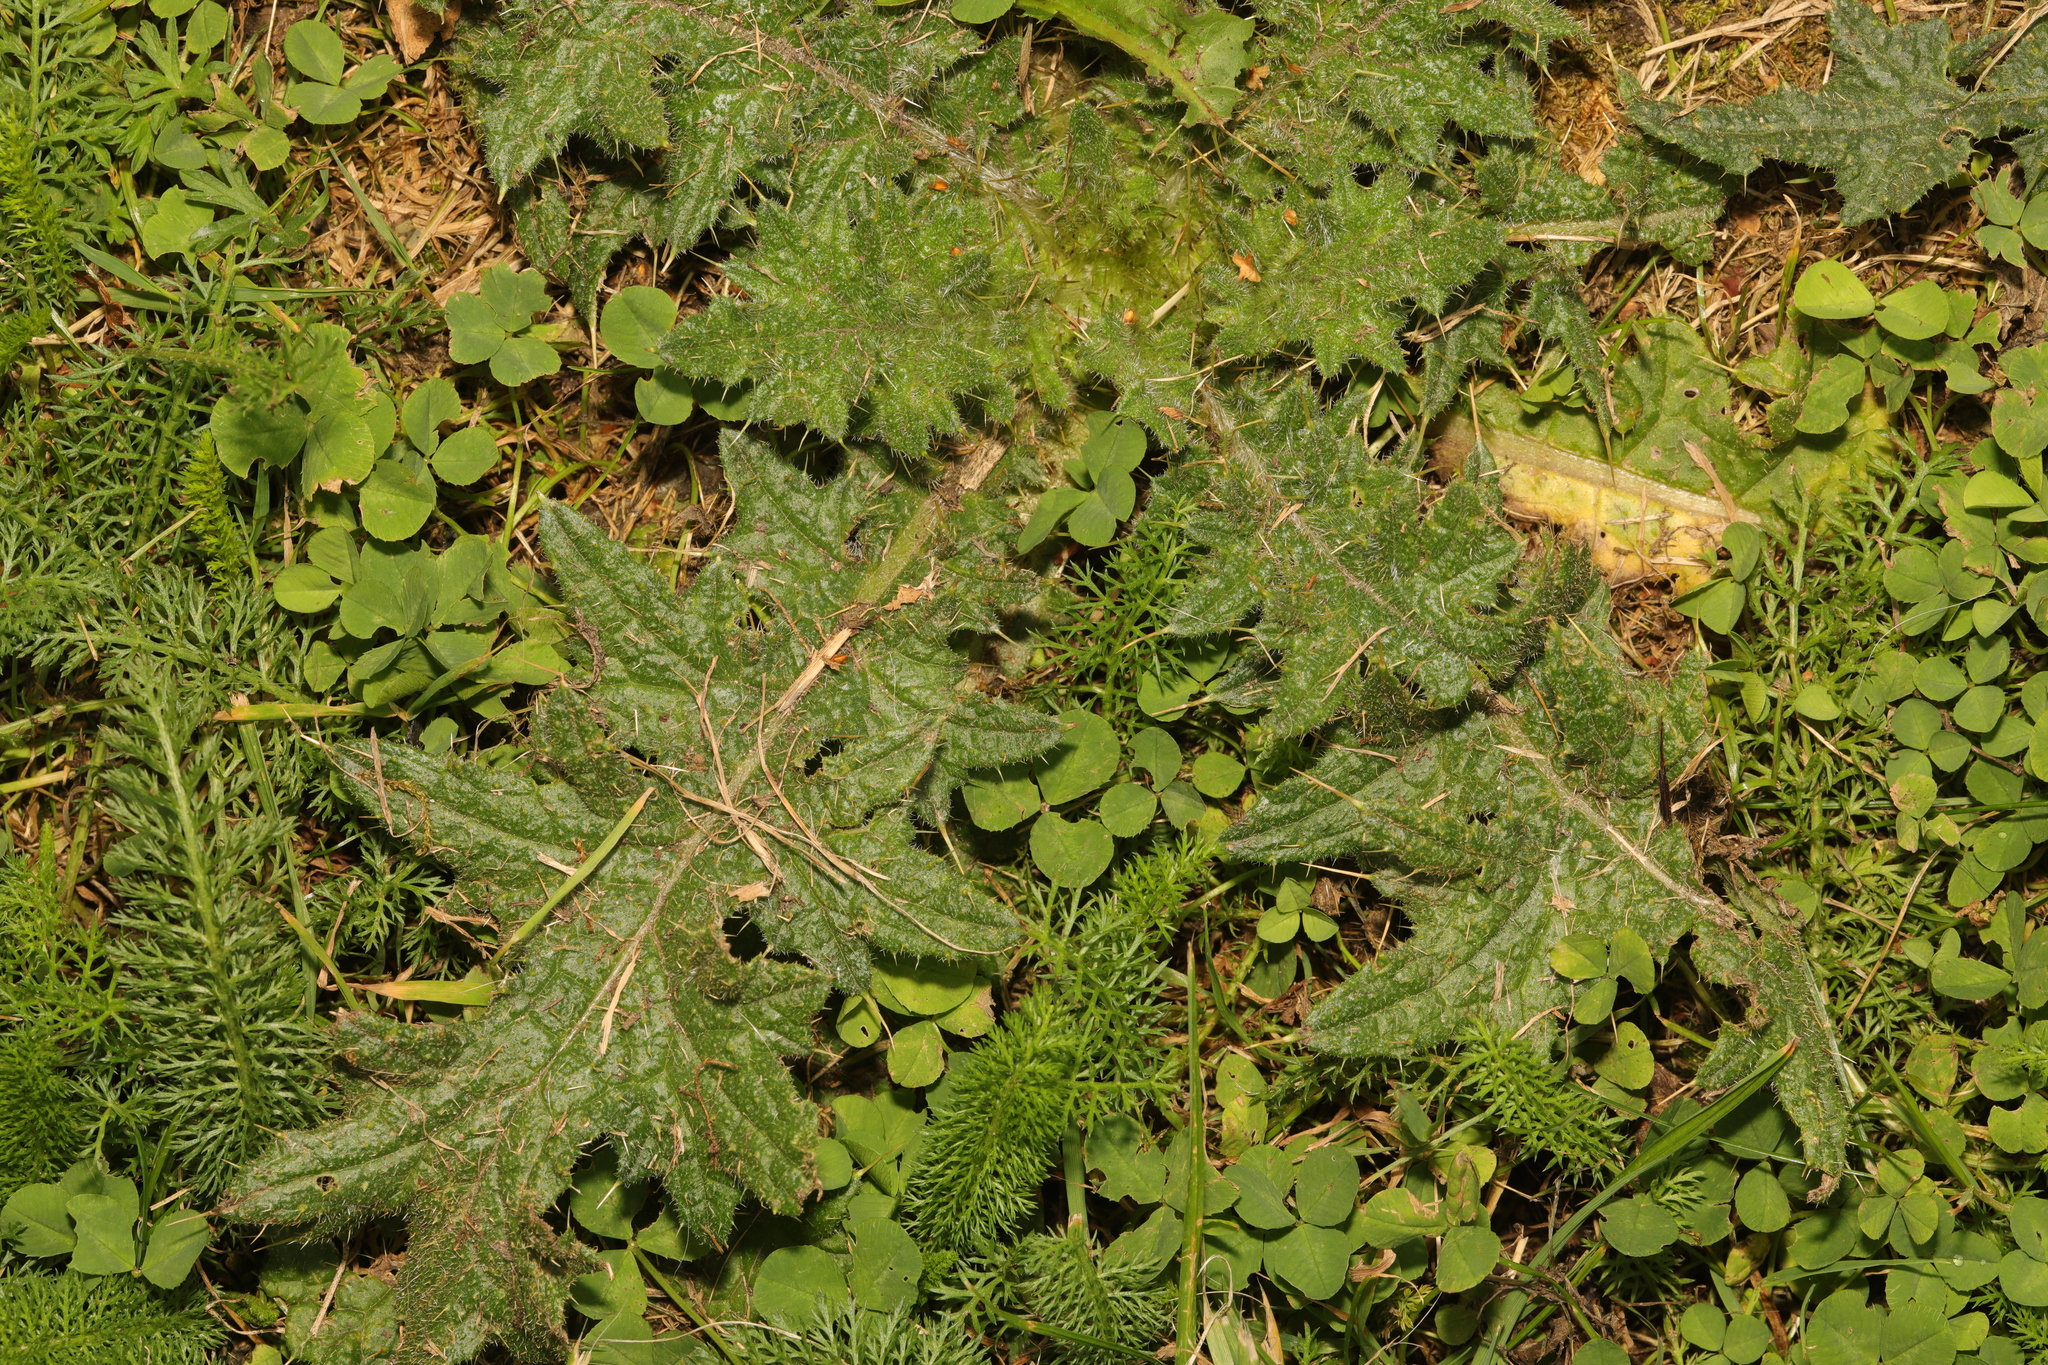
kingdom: Plantae
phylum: Tracheophyta
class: Magnoliopsida
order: Asterales
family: Asteraceae
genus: Cirsium
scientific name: Cirsium vulgare
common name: Bull thistle
